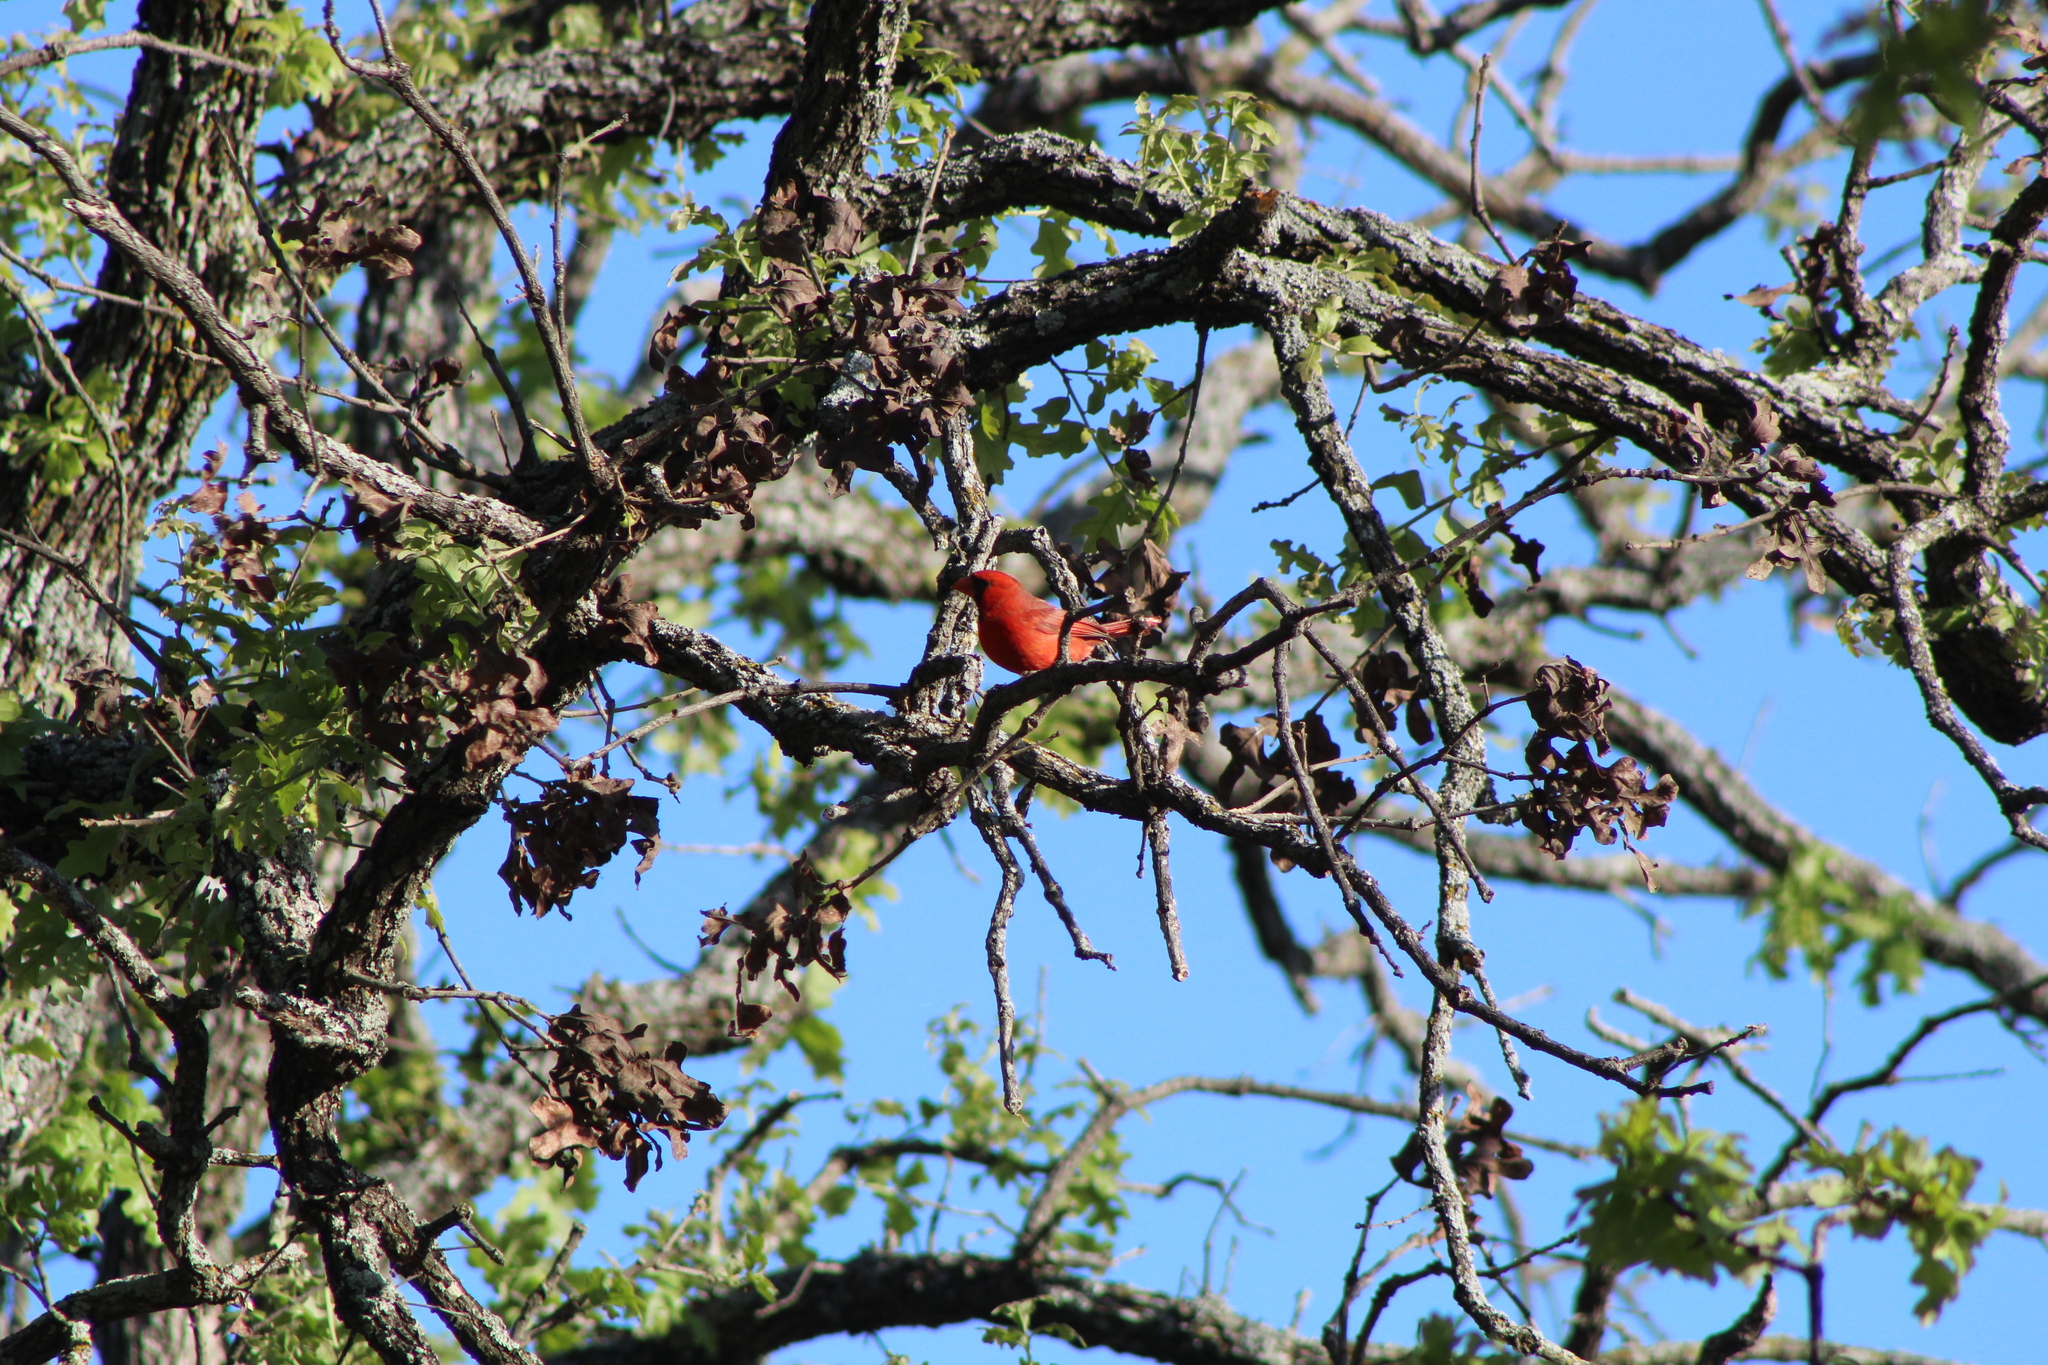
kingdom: Animalia
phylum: Chordata
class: Aves
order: Passeriformes
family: Cardinalidae
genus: Cardinalis
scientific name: Cardinalis cardinalis
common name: Northern cardinal
